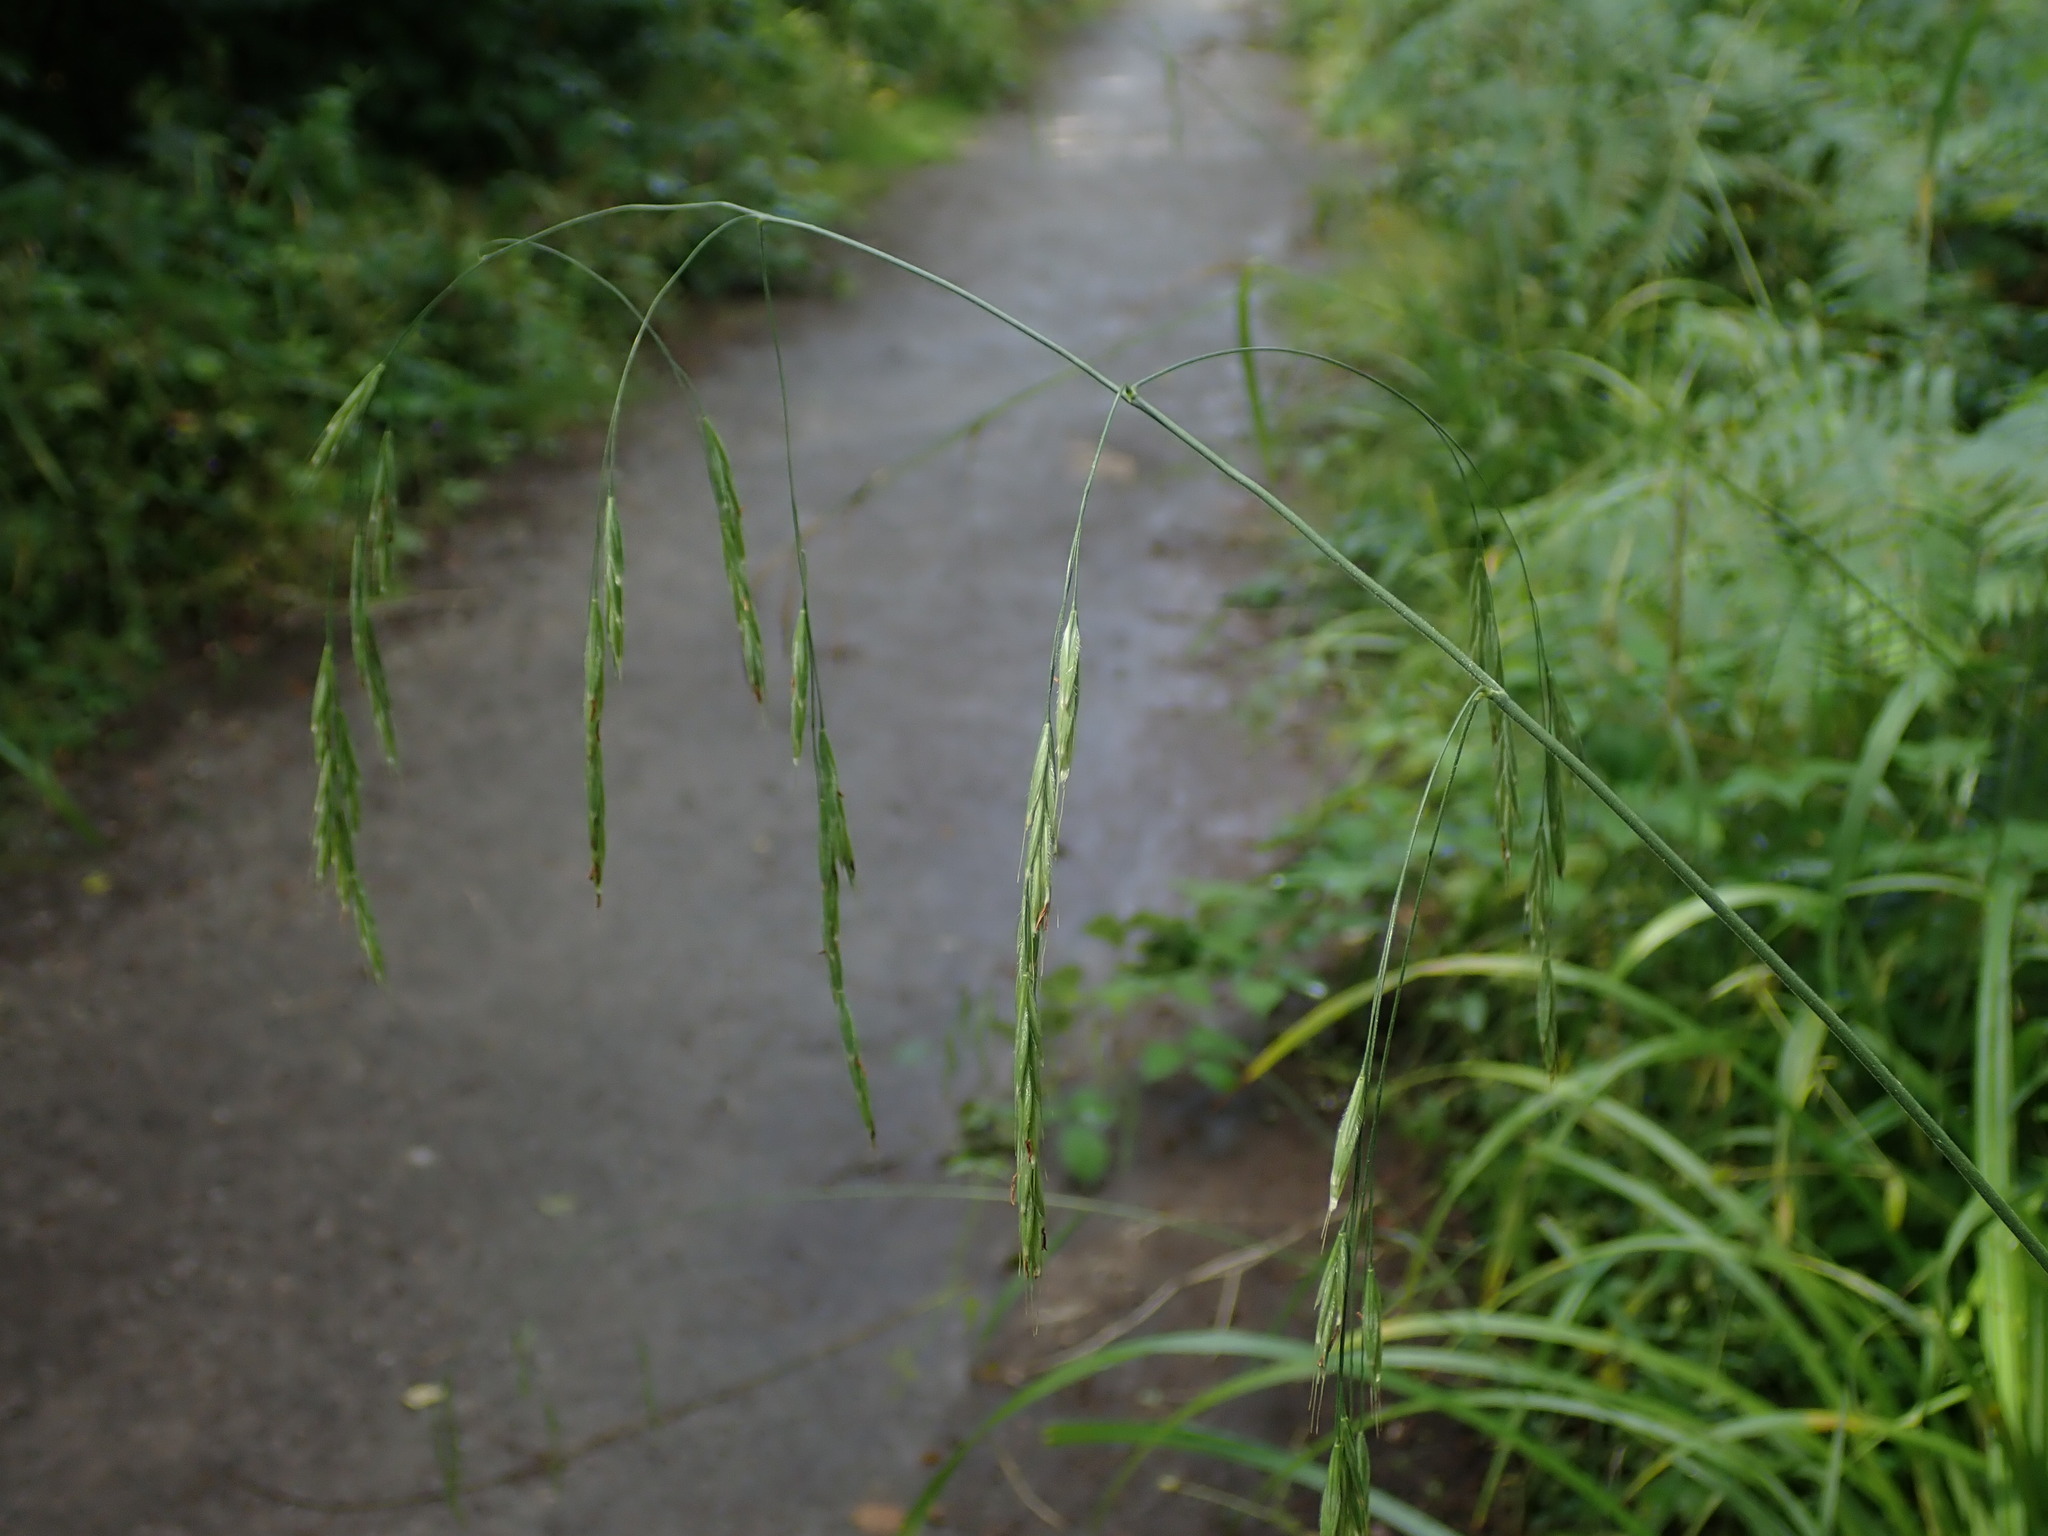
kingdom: Plantae
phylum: Tracheophyta
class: Liliopsida
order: Poales
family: Poaceae
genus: Bromus
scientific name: Bromus ramosus
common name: Hairy brome
